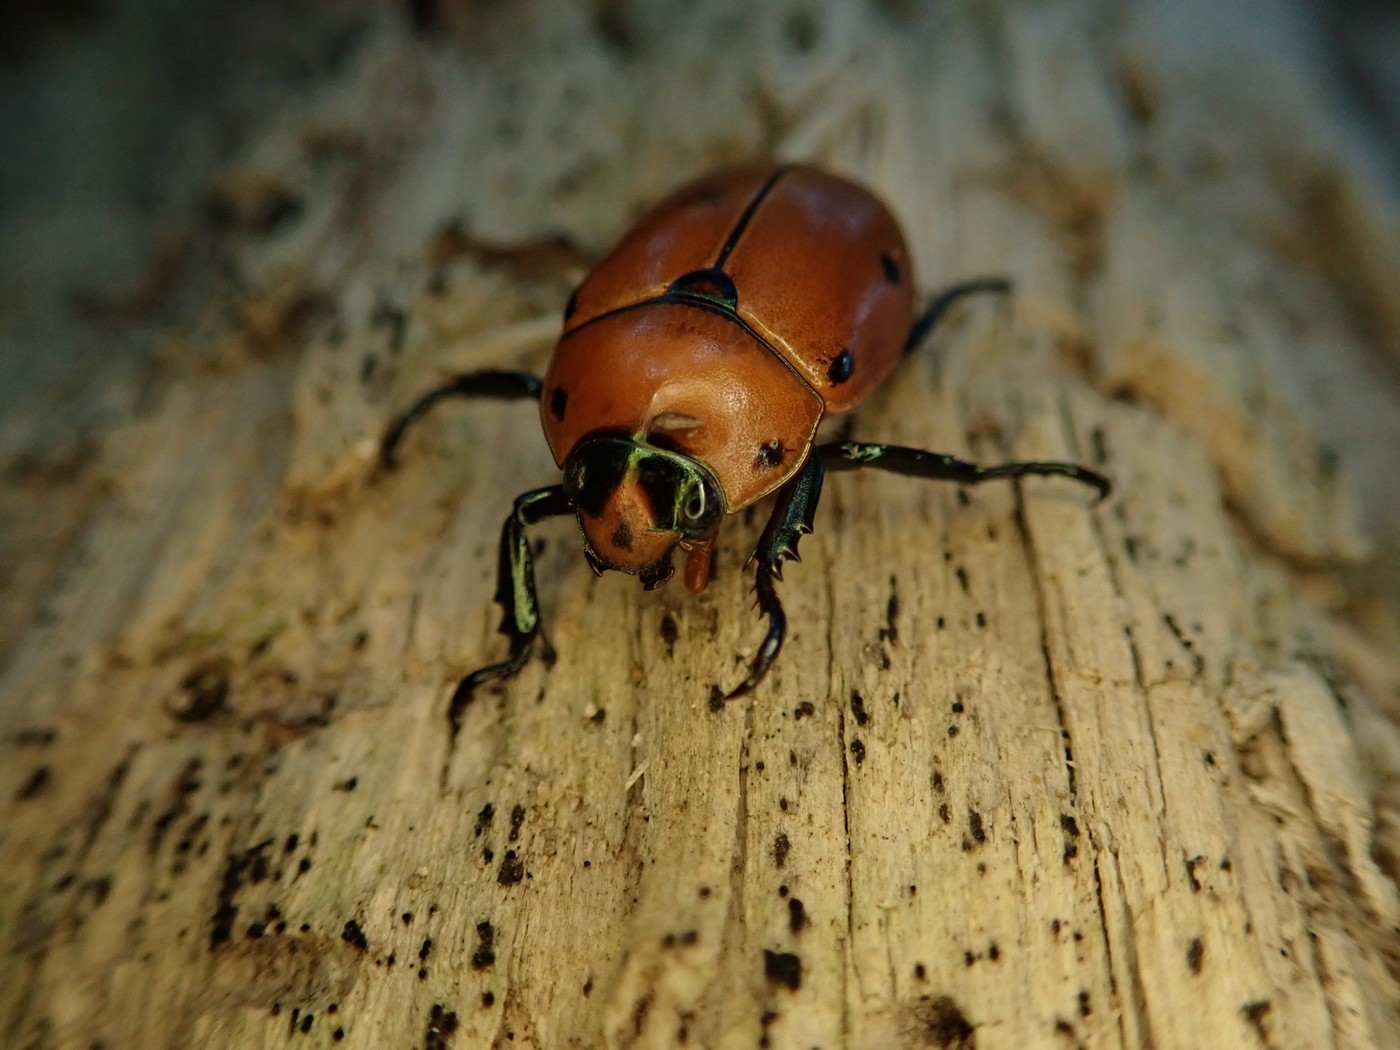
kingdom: Animalia
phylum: Arthropoda
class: Insecta
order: Coleoptera
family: Scarabaeidae
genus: Pelidnota
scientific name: Pelidnota punctata
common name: Grapevine beetle
